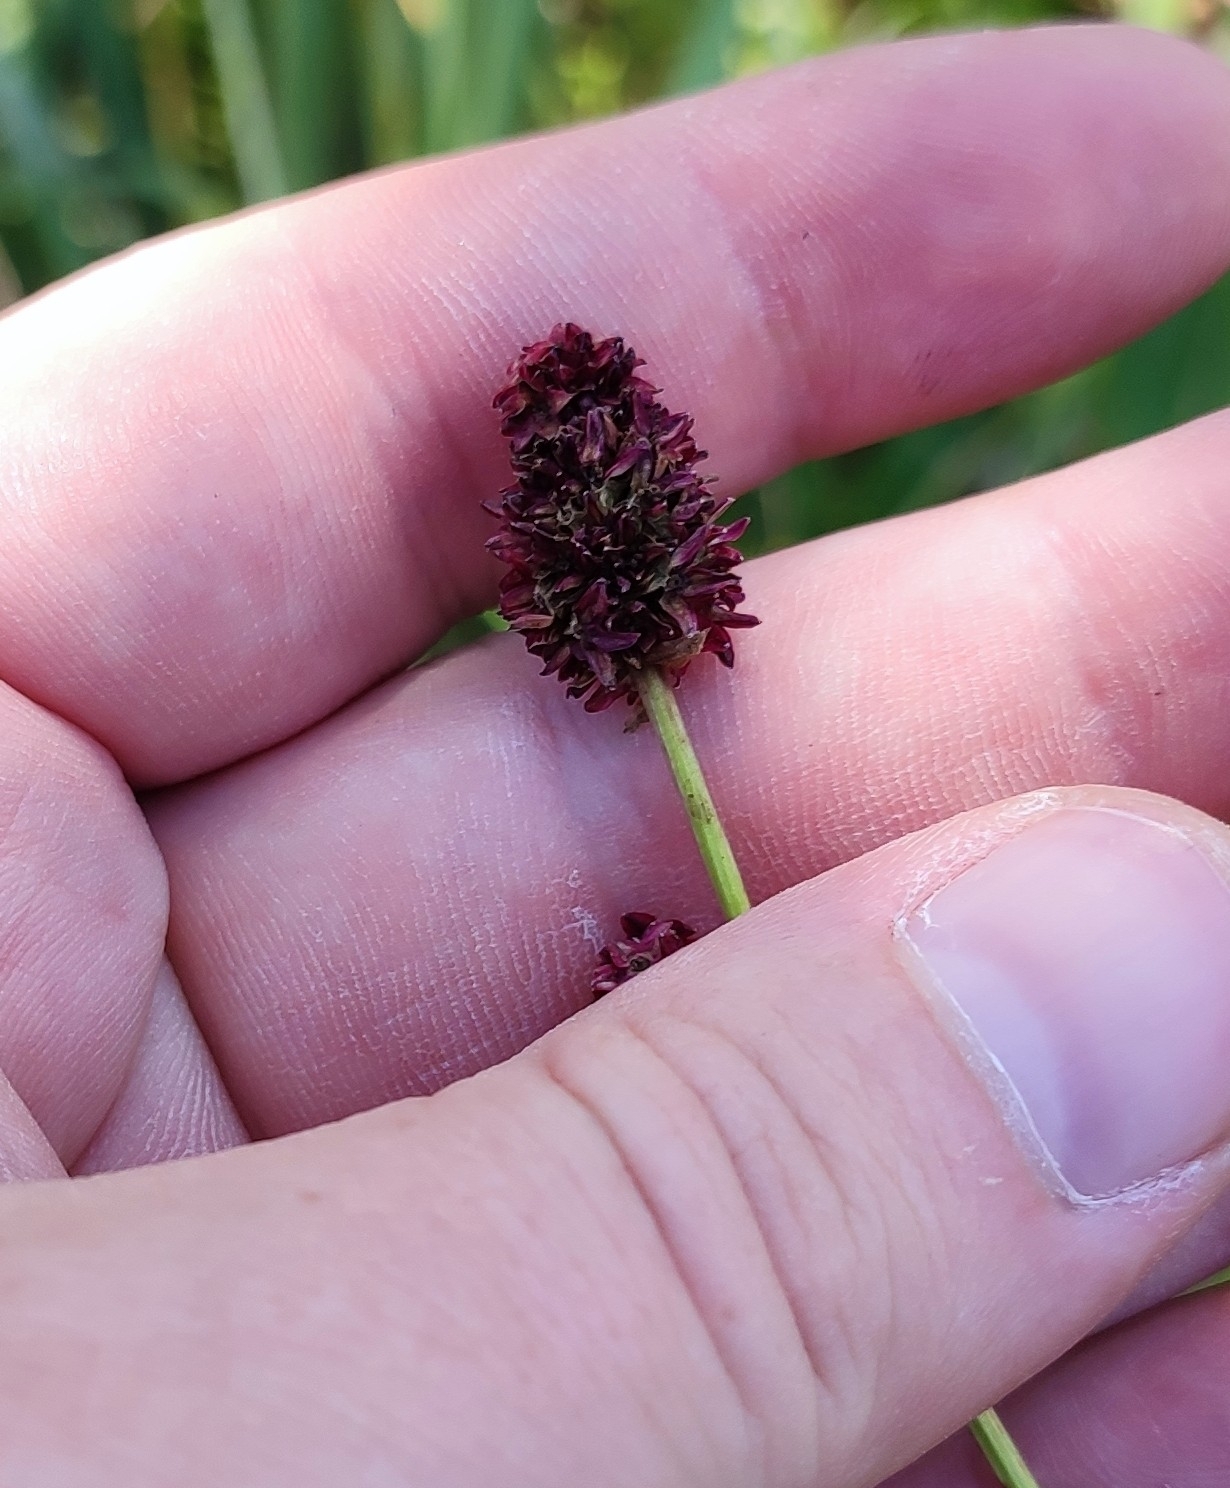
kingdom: Plantae
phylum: Tracheophyta
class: Magnoliopsida
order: Rosales
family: Rosaceae
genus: Sanguisorba
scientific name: Sanguisorba officinalis
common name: Great burnet
